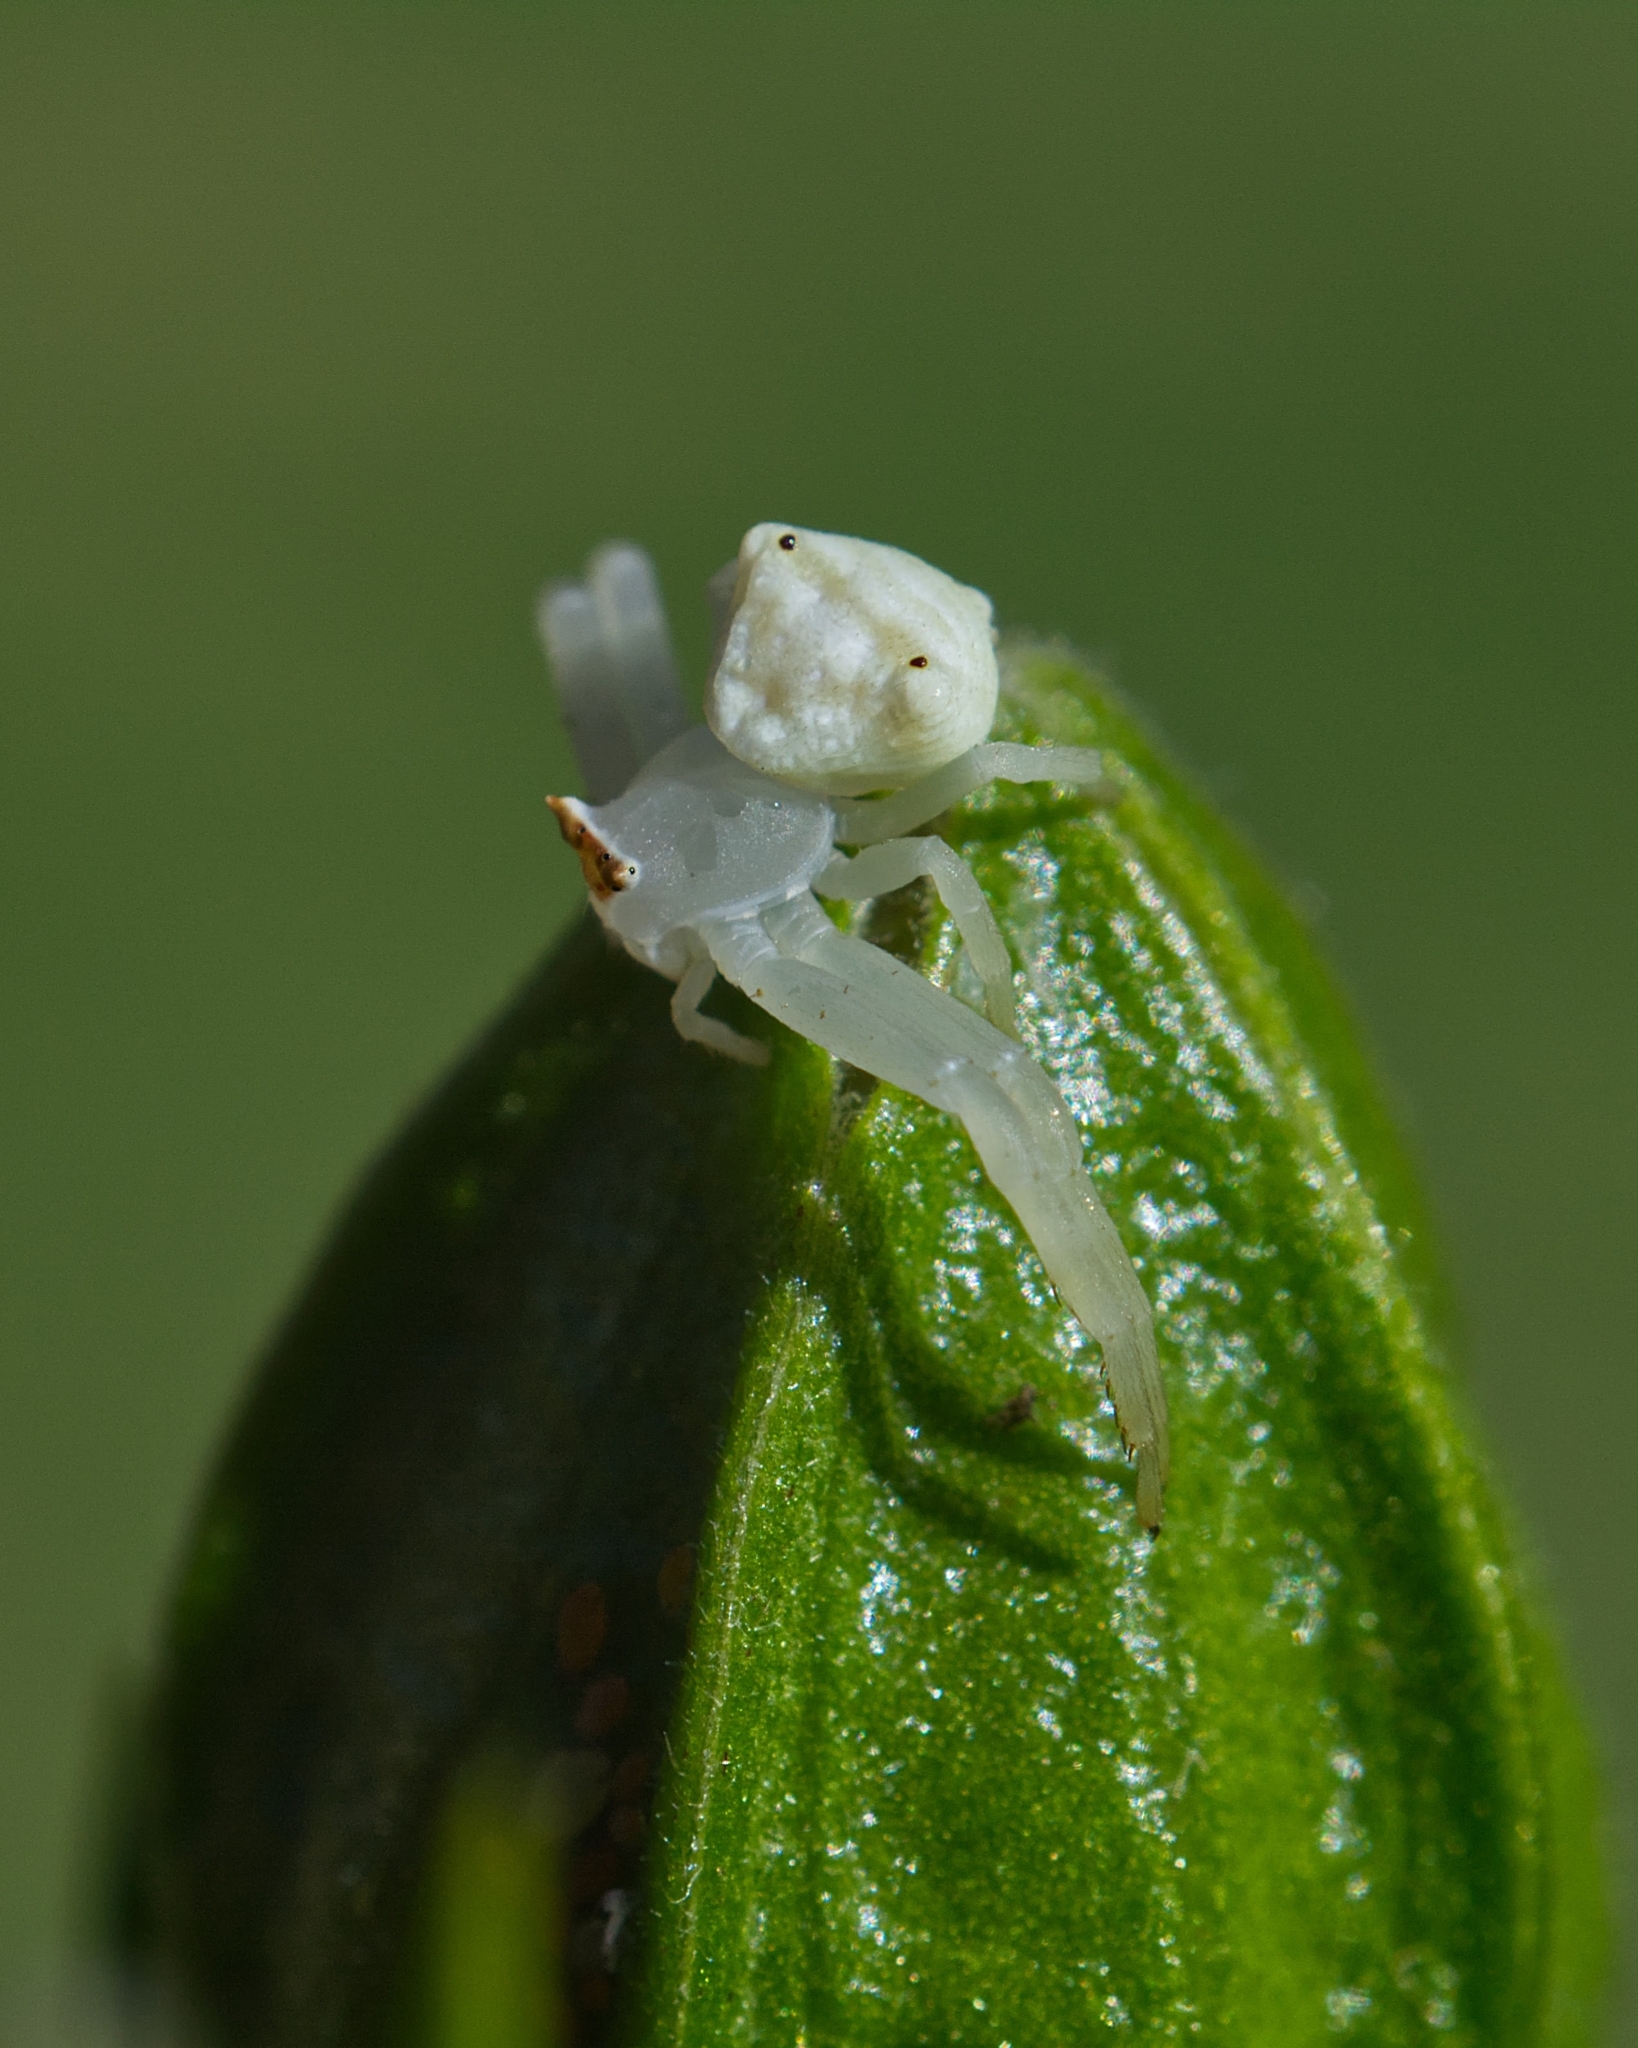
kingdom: Animalia
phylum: Arthropoda
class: Arachnida
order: Araneae
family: Thomisidae
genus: Thomisus
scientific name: Thomisus australis
